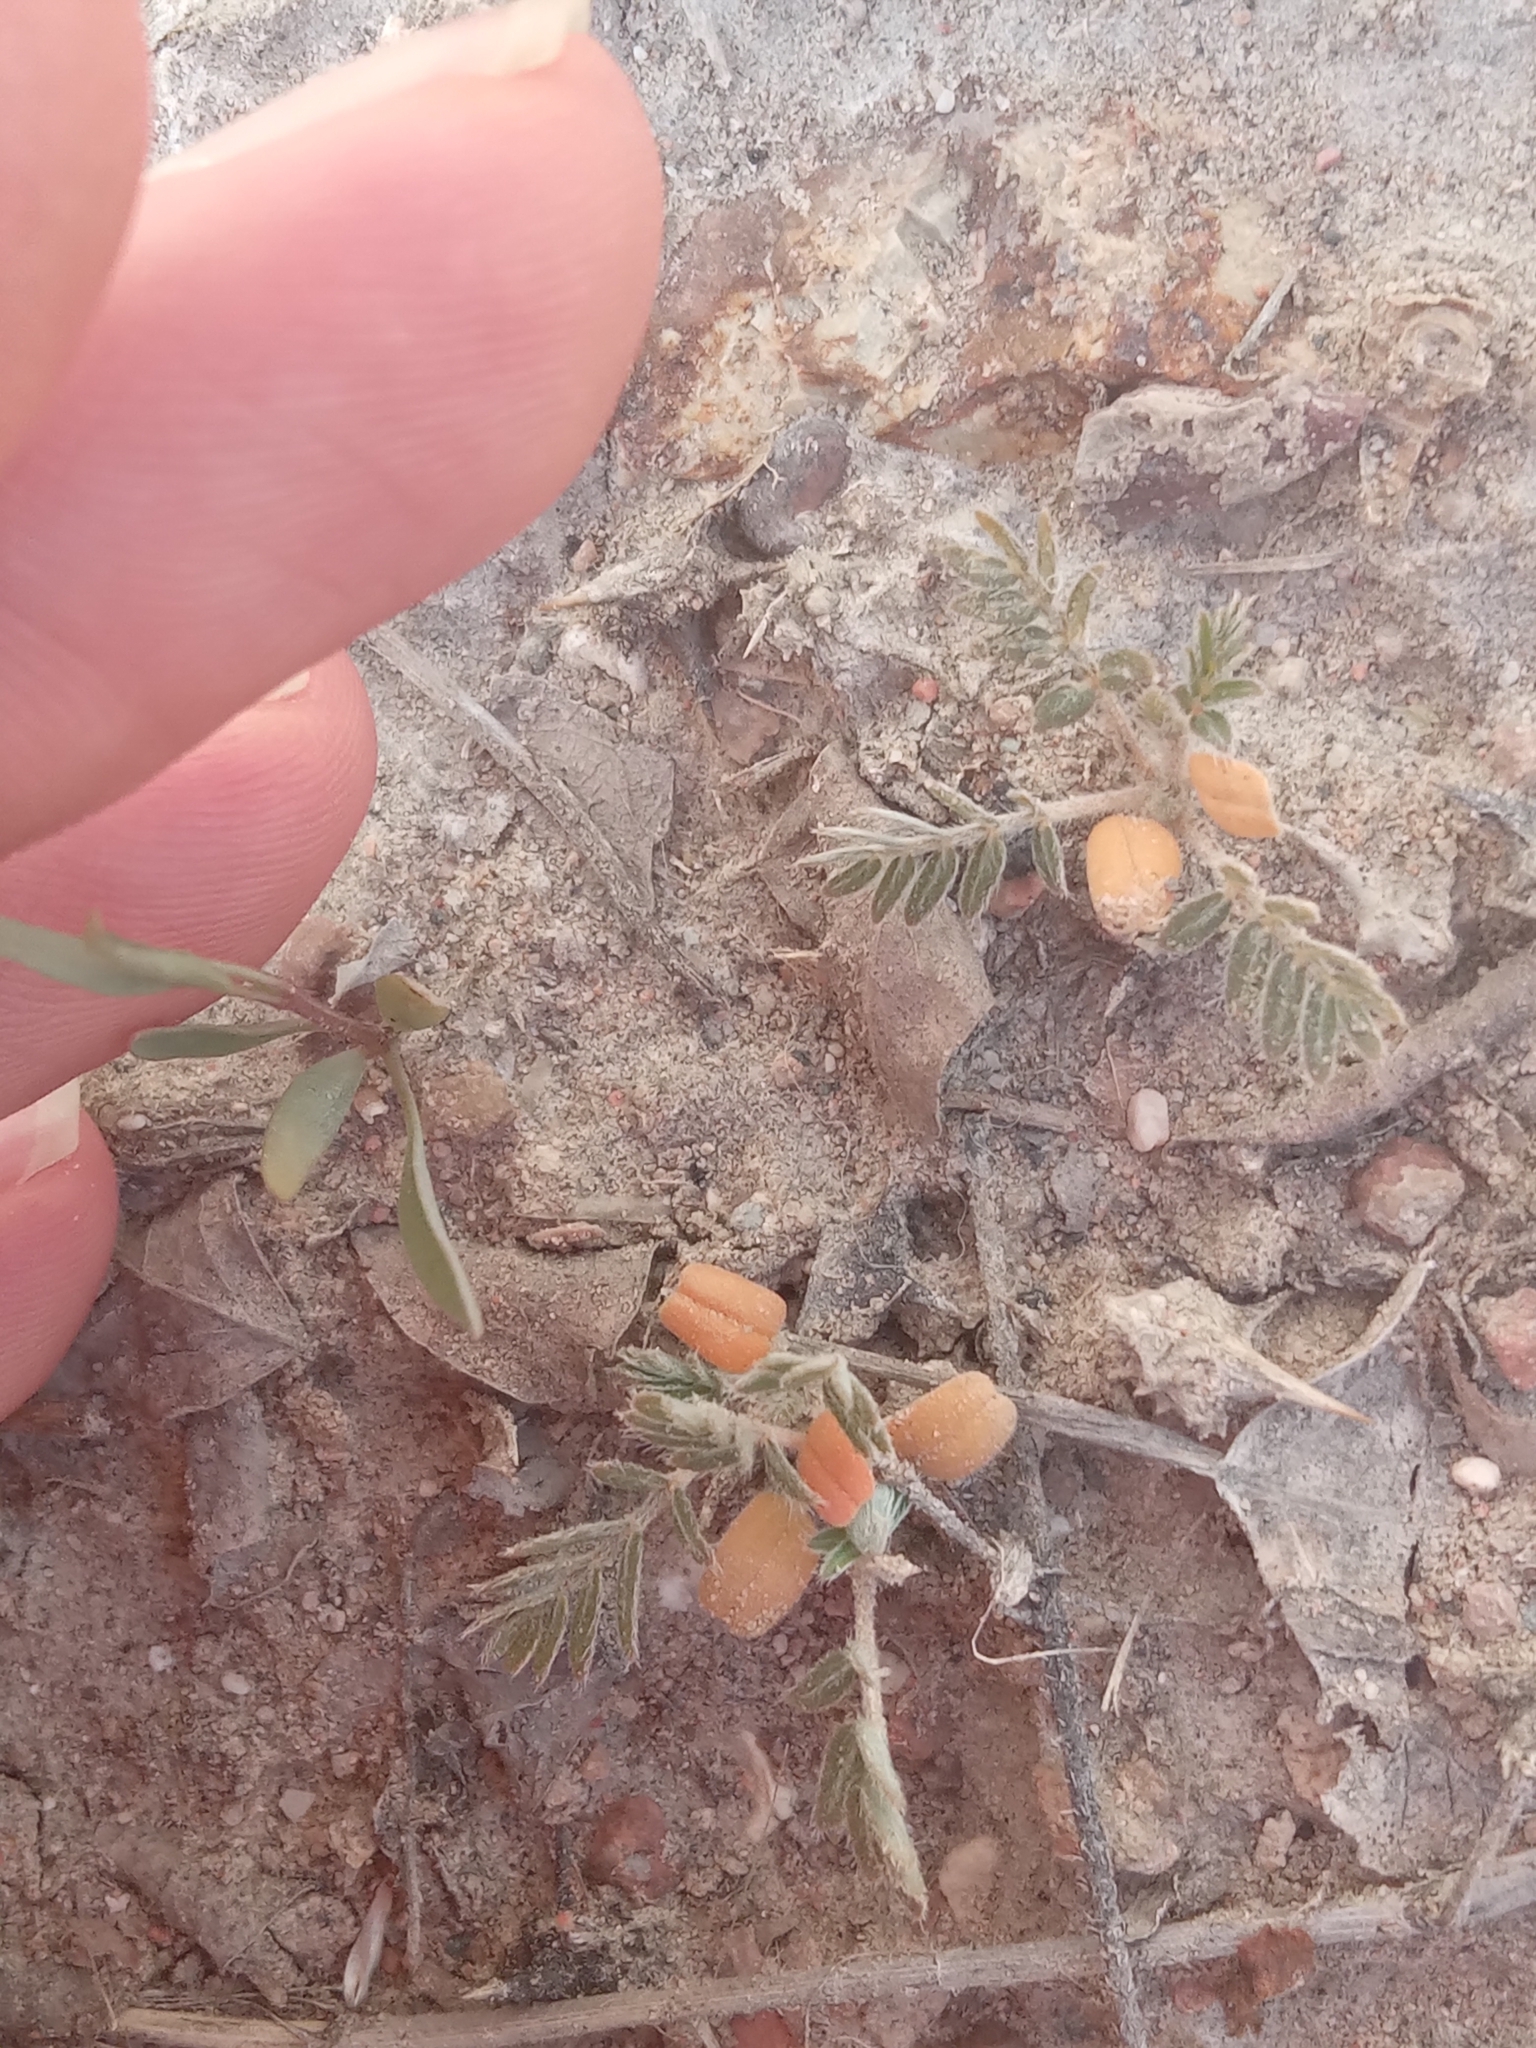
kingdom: Plantae
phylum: Tracheophyta
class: Magnoliopsida
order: Fabales
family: Fabaceae
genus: Astragalus
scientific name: Astragalus pallasii
